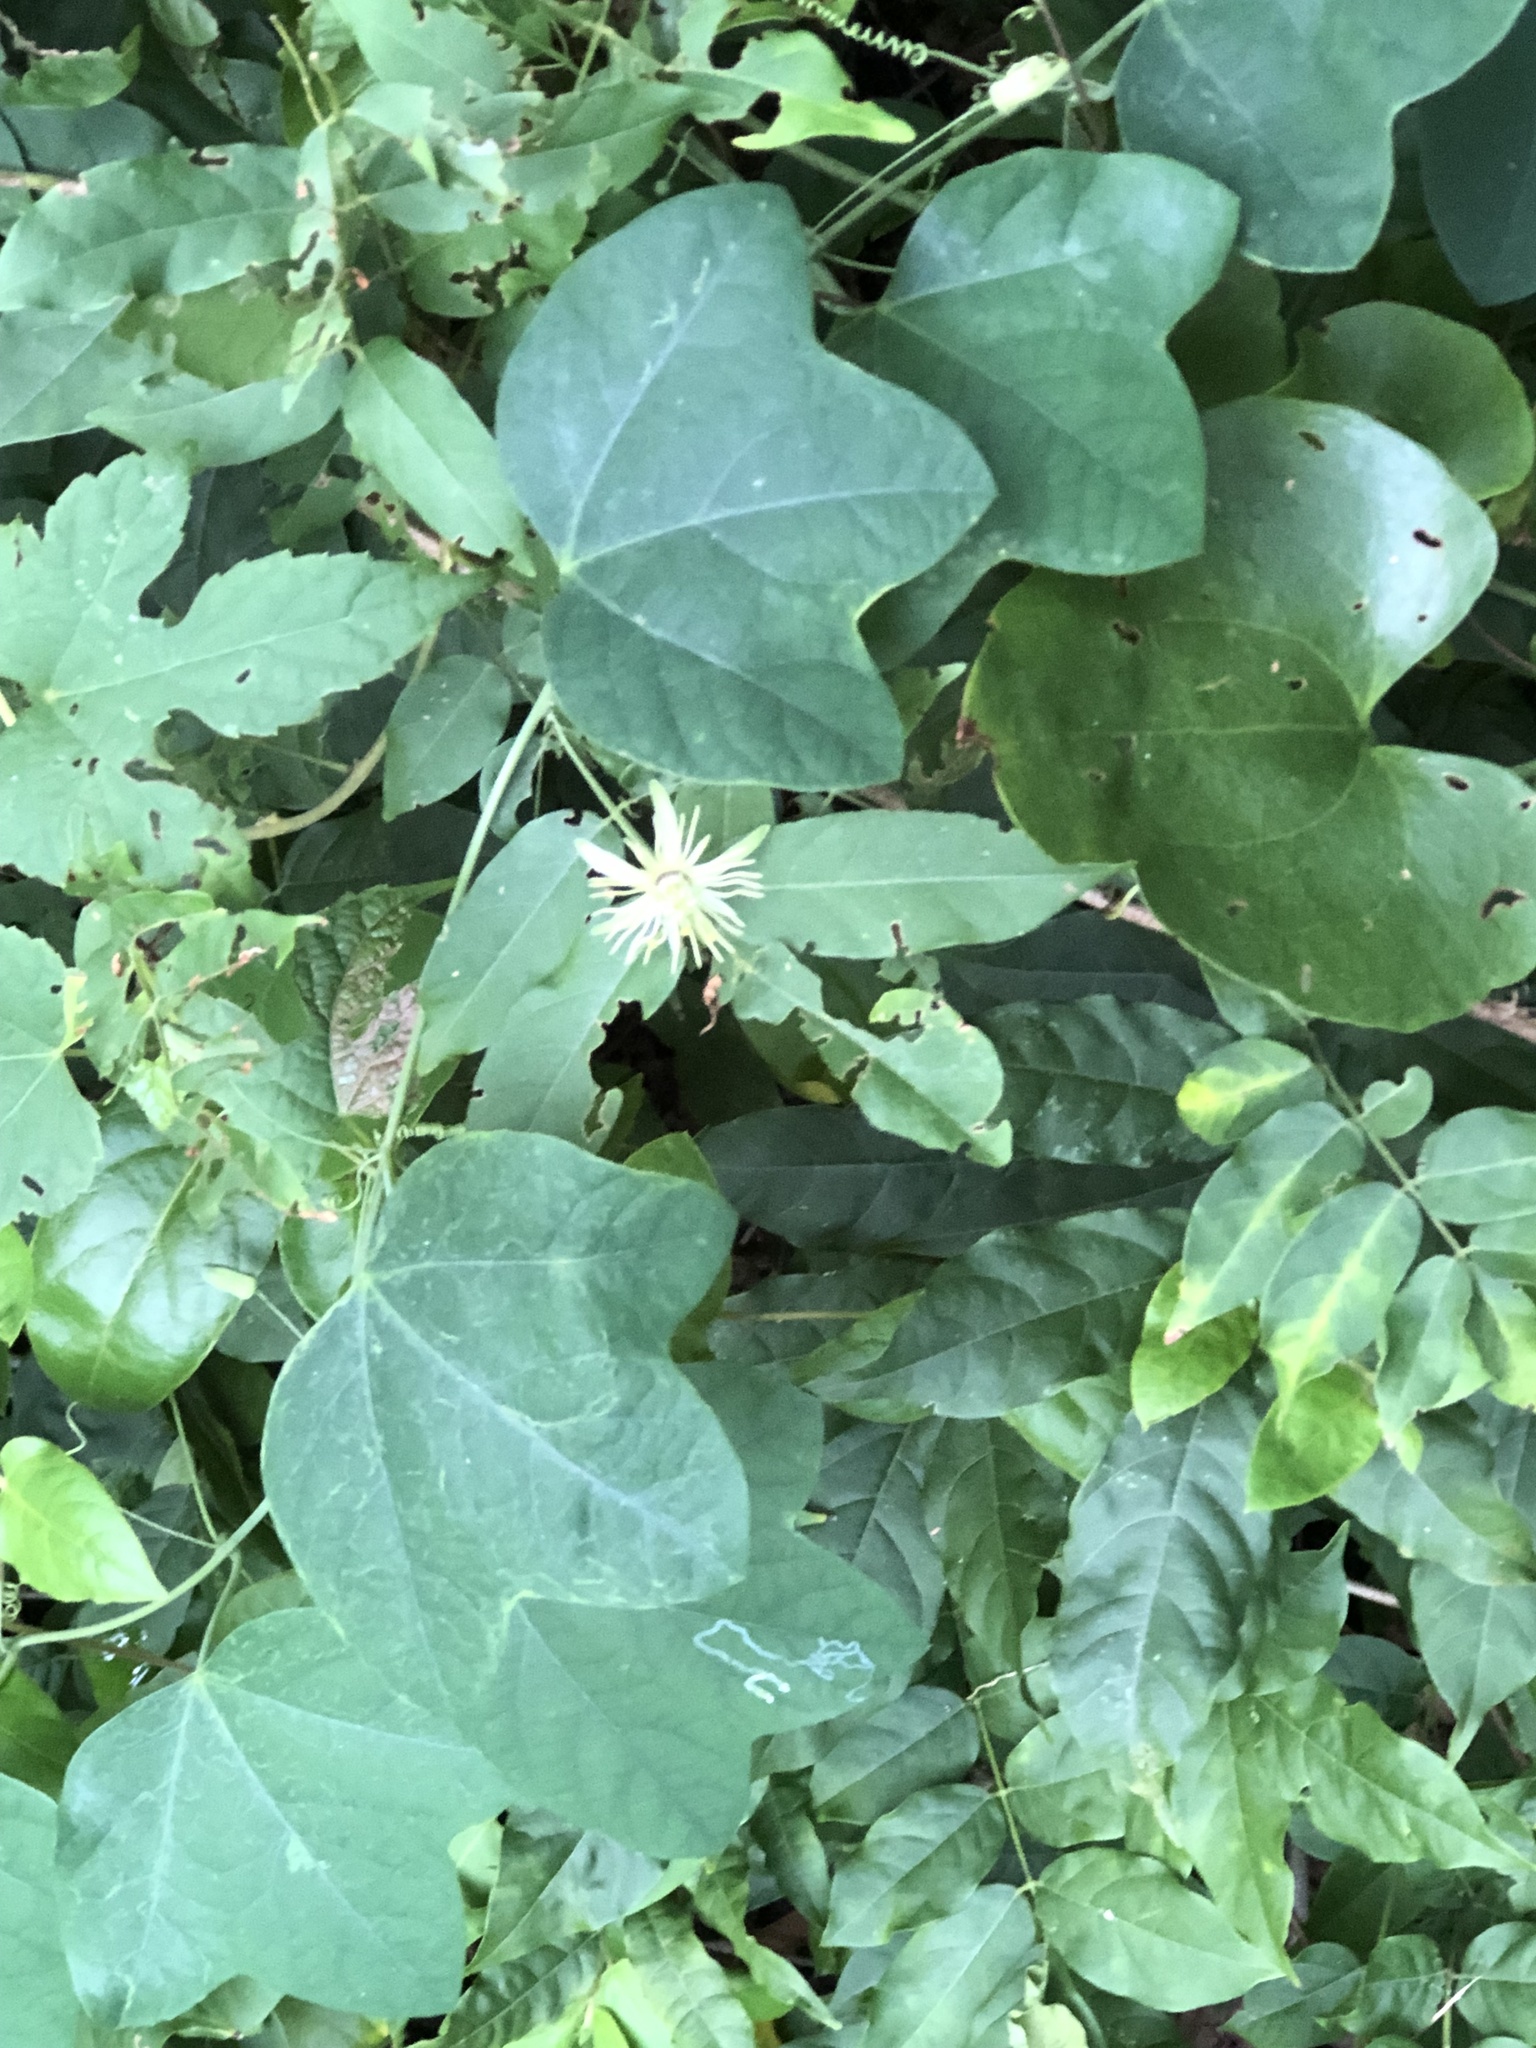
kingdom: Plantae
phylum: Tracheophyta
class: Magnoliopsida
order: Malpighiales
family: Passifloraceae
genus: Passiflora
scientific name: Passiflora lutea
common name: Yellow passionflower
